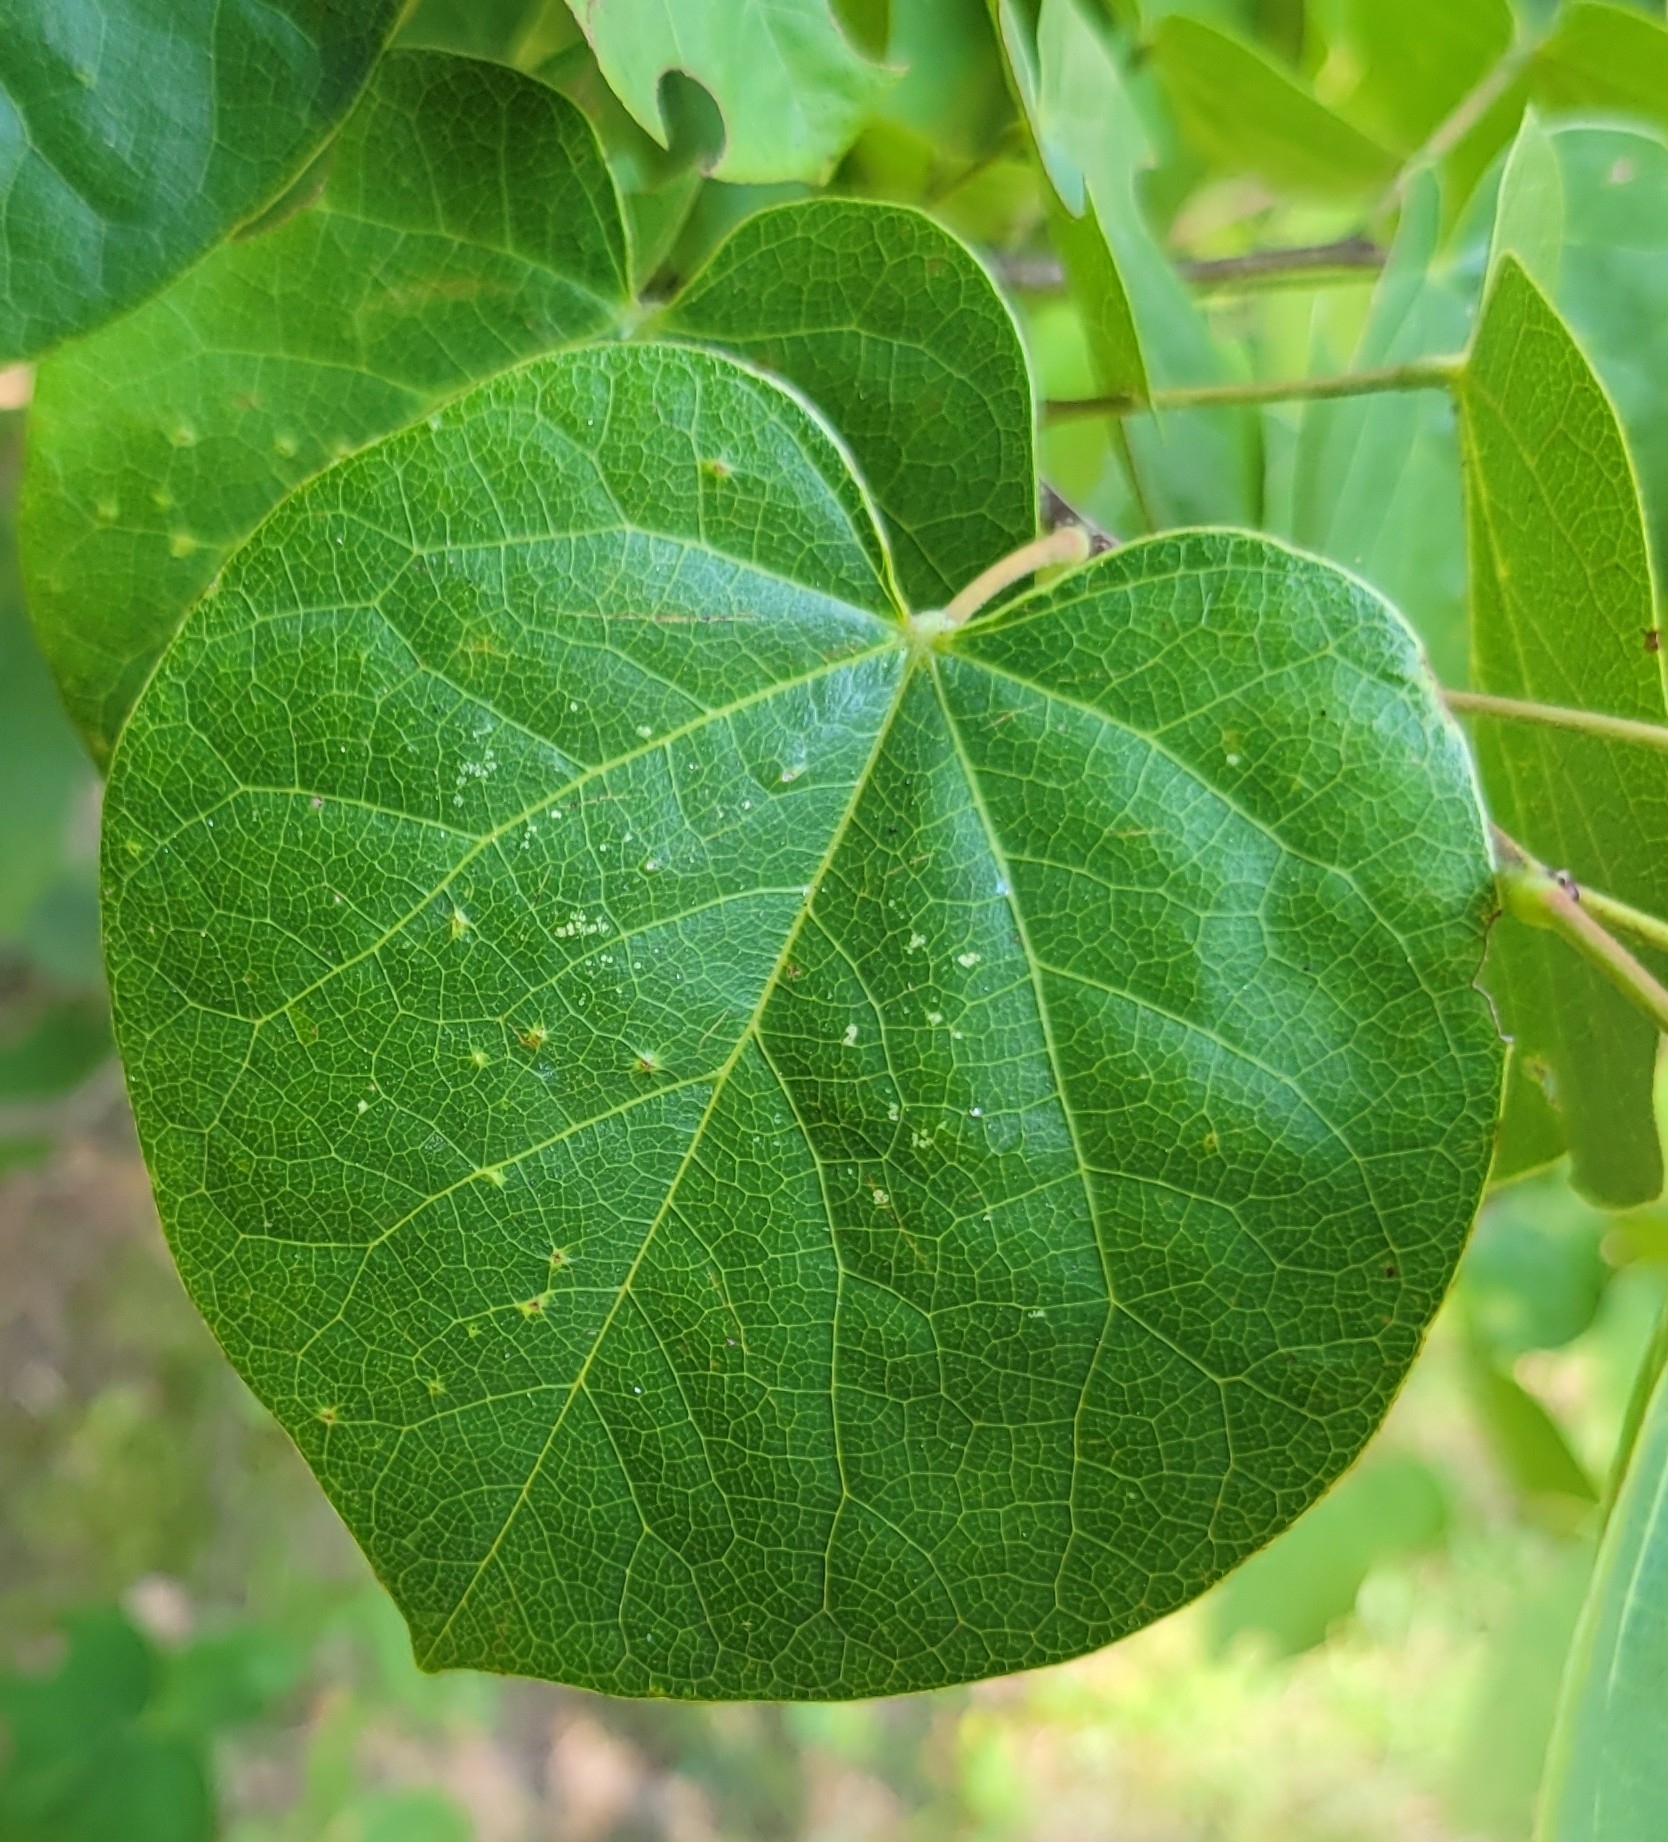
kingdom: Plantae
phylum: Tracheophyta
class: Magnoliopsida
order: Fabales
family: Fabaceae
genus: Cercis
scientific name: Cercis canadensis
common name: Eastern redbud
